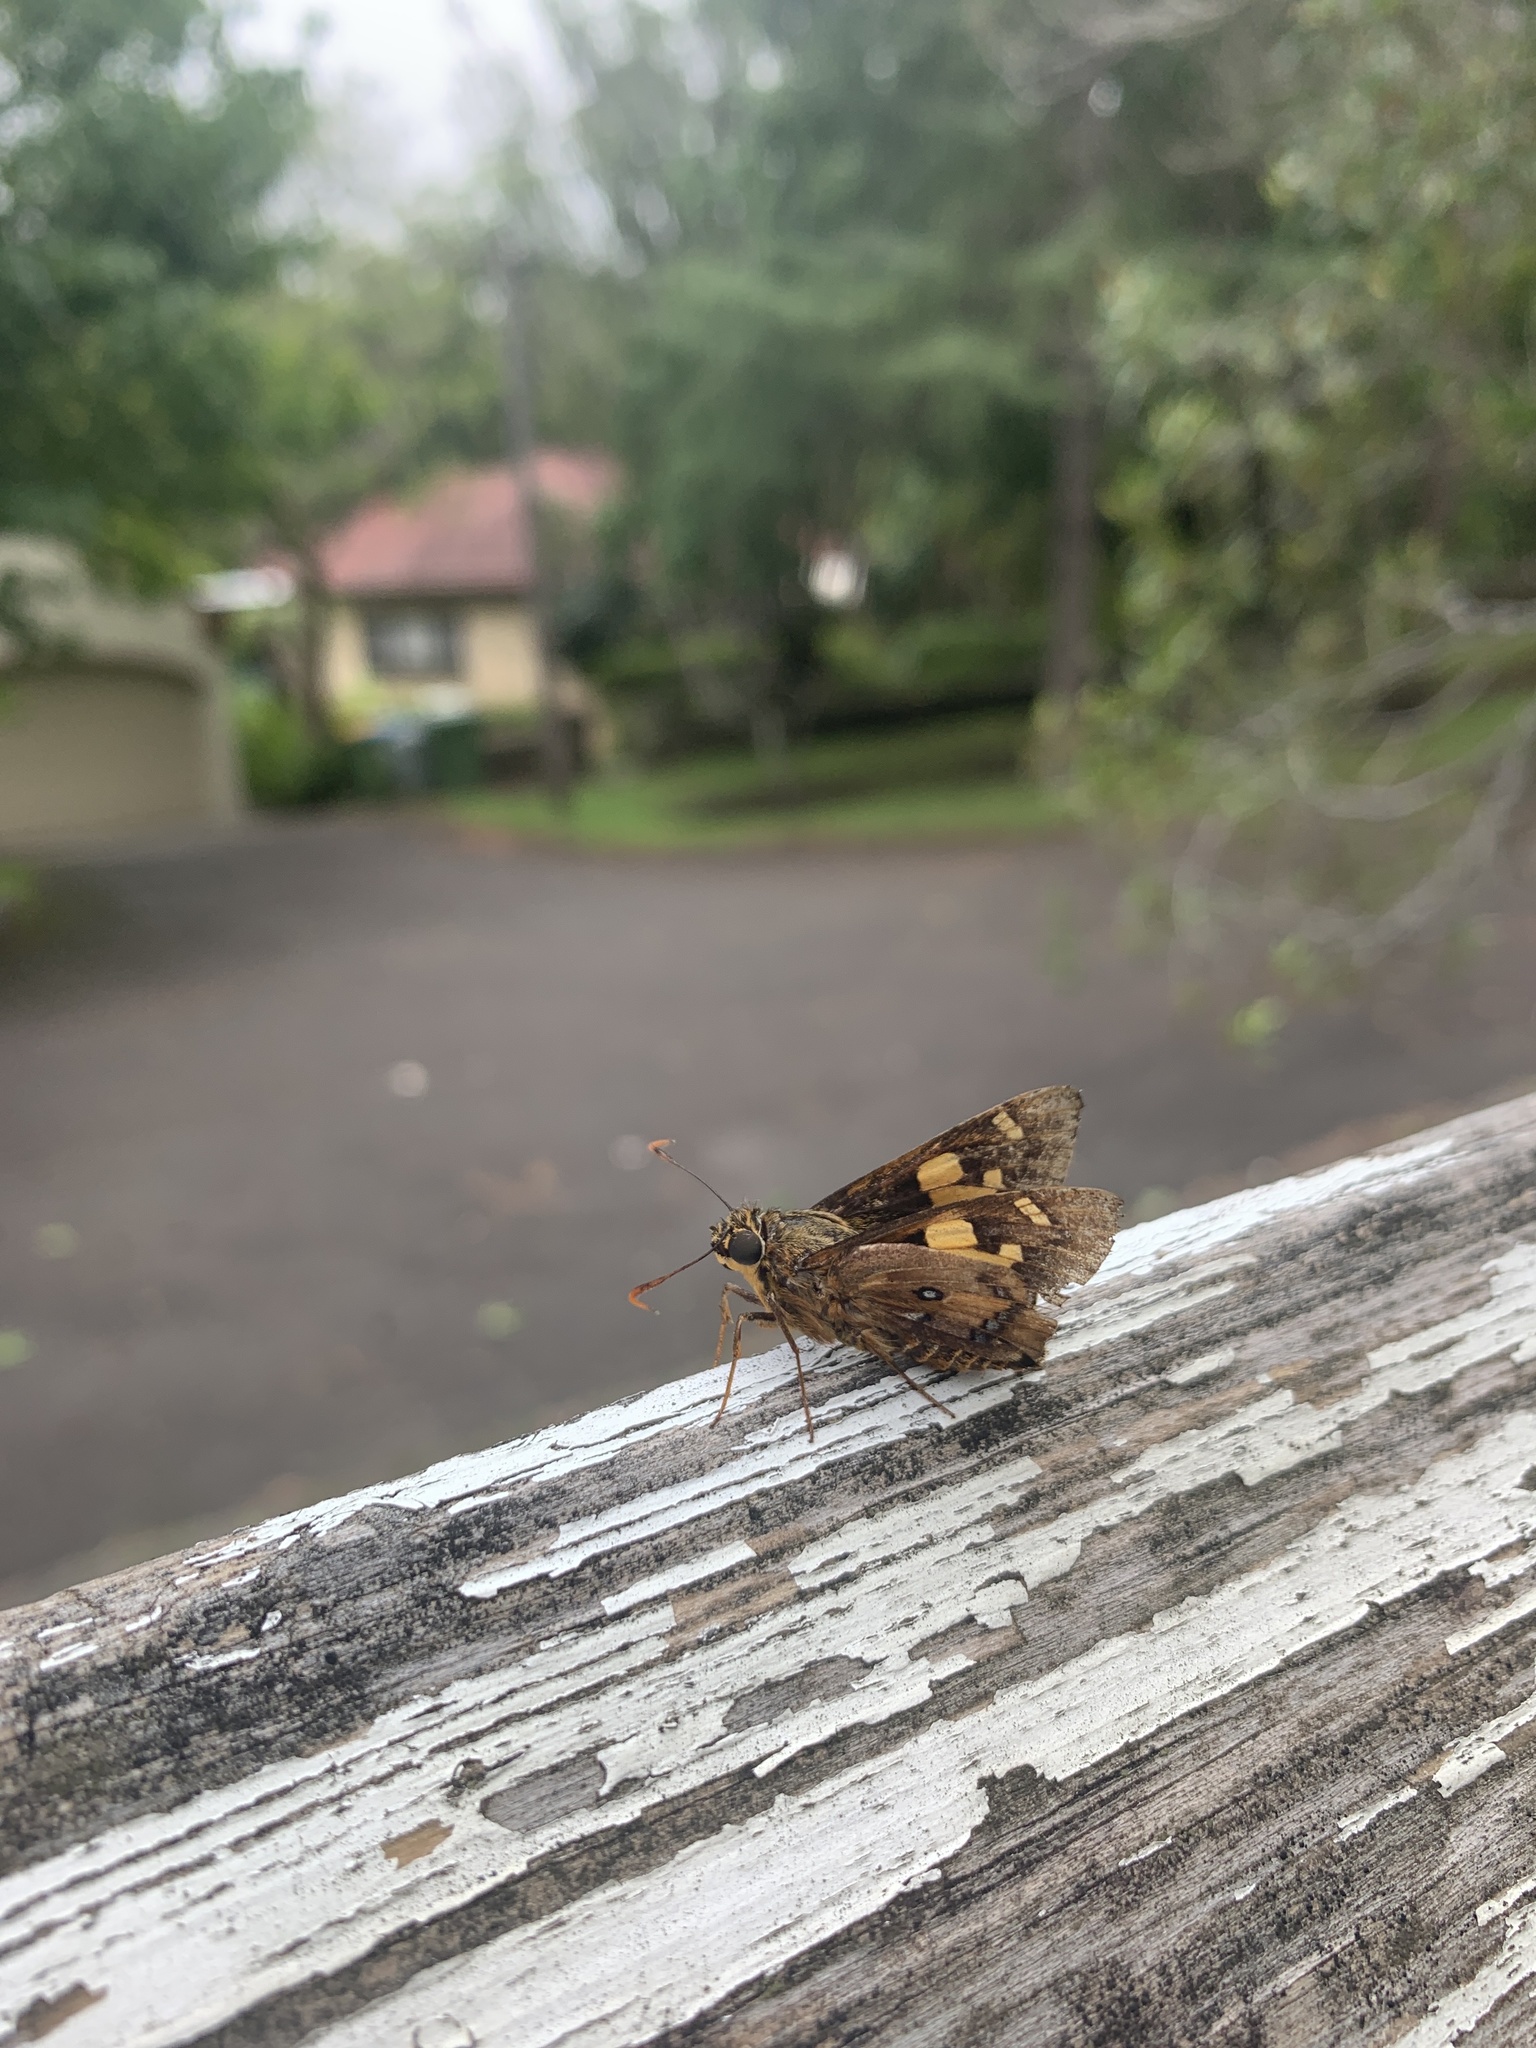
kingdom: Animalia
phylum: Arthropoda
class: Insecta
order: Lepidoptera
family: Hesperiidae
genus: Trapezites
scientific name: Trapezites symmomus
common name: Splendid ochre
